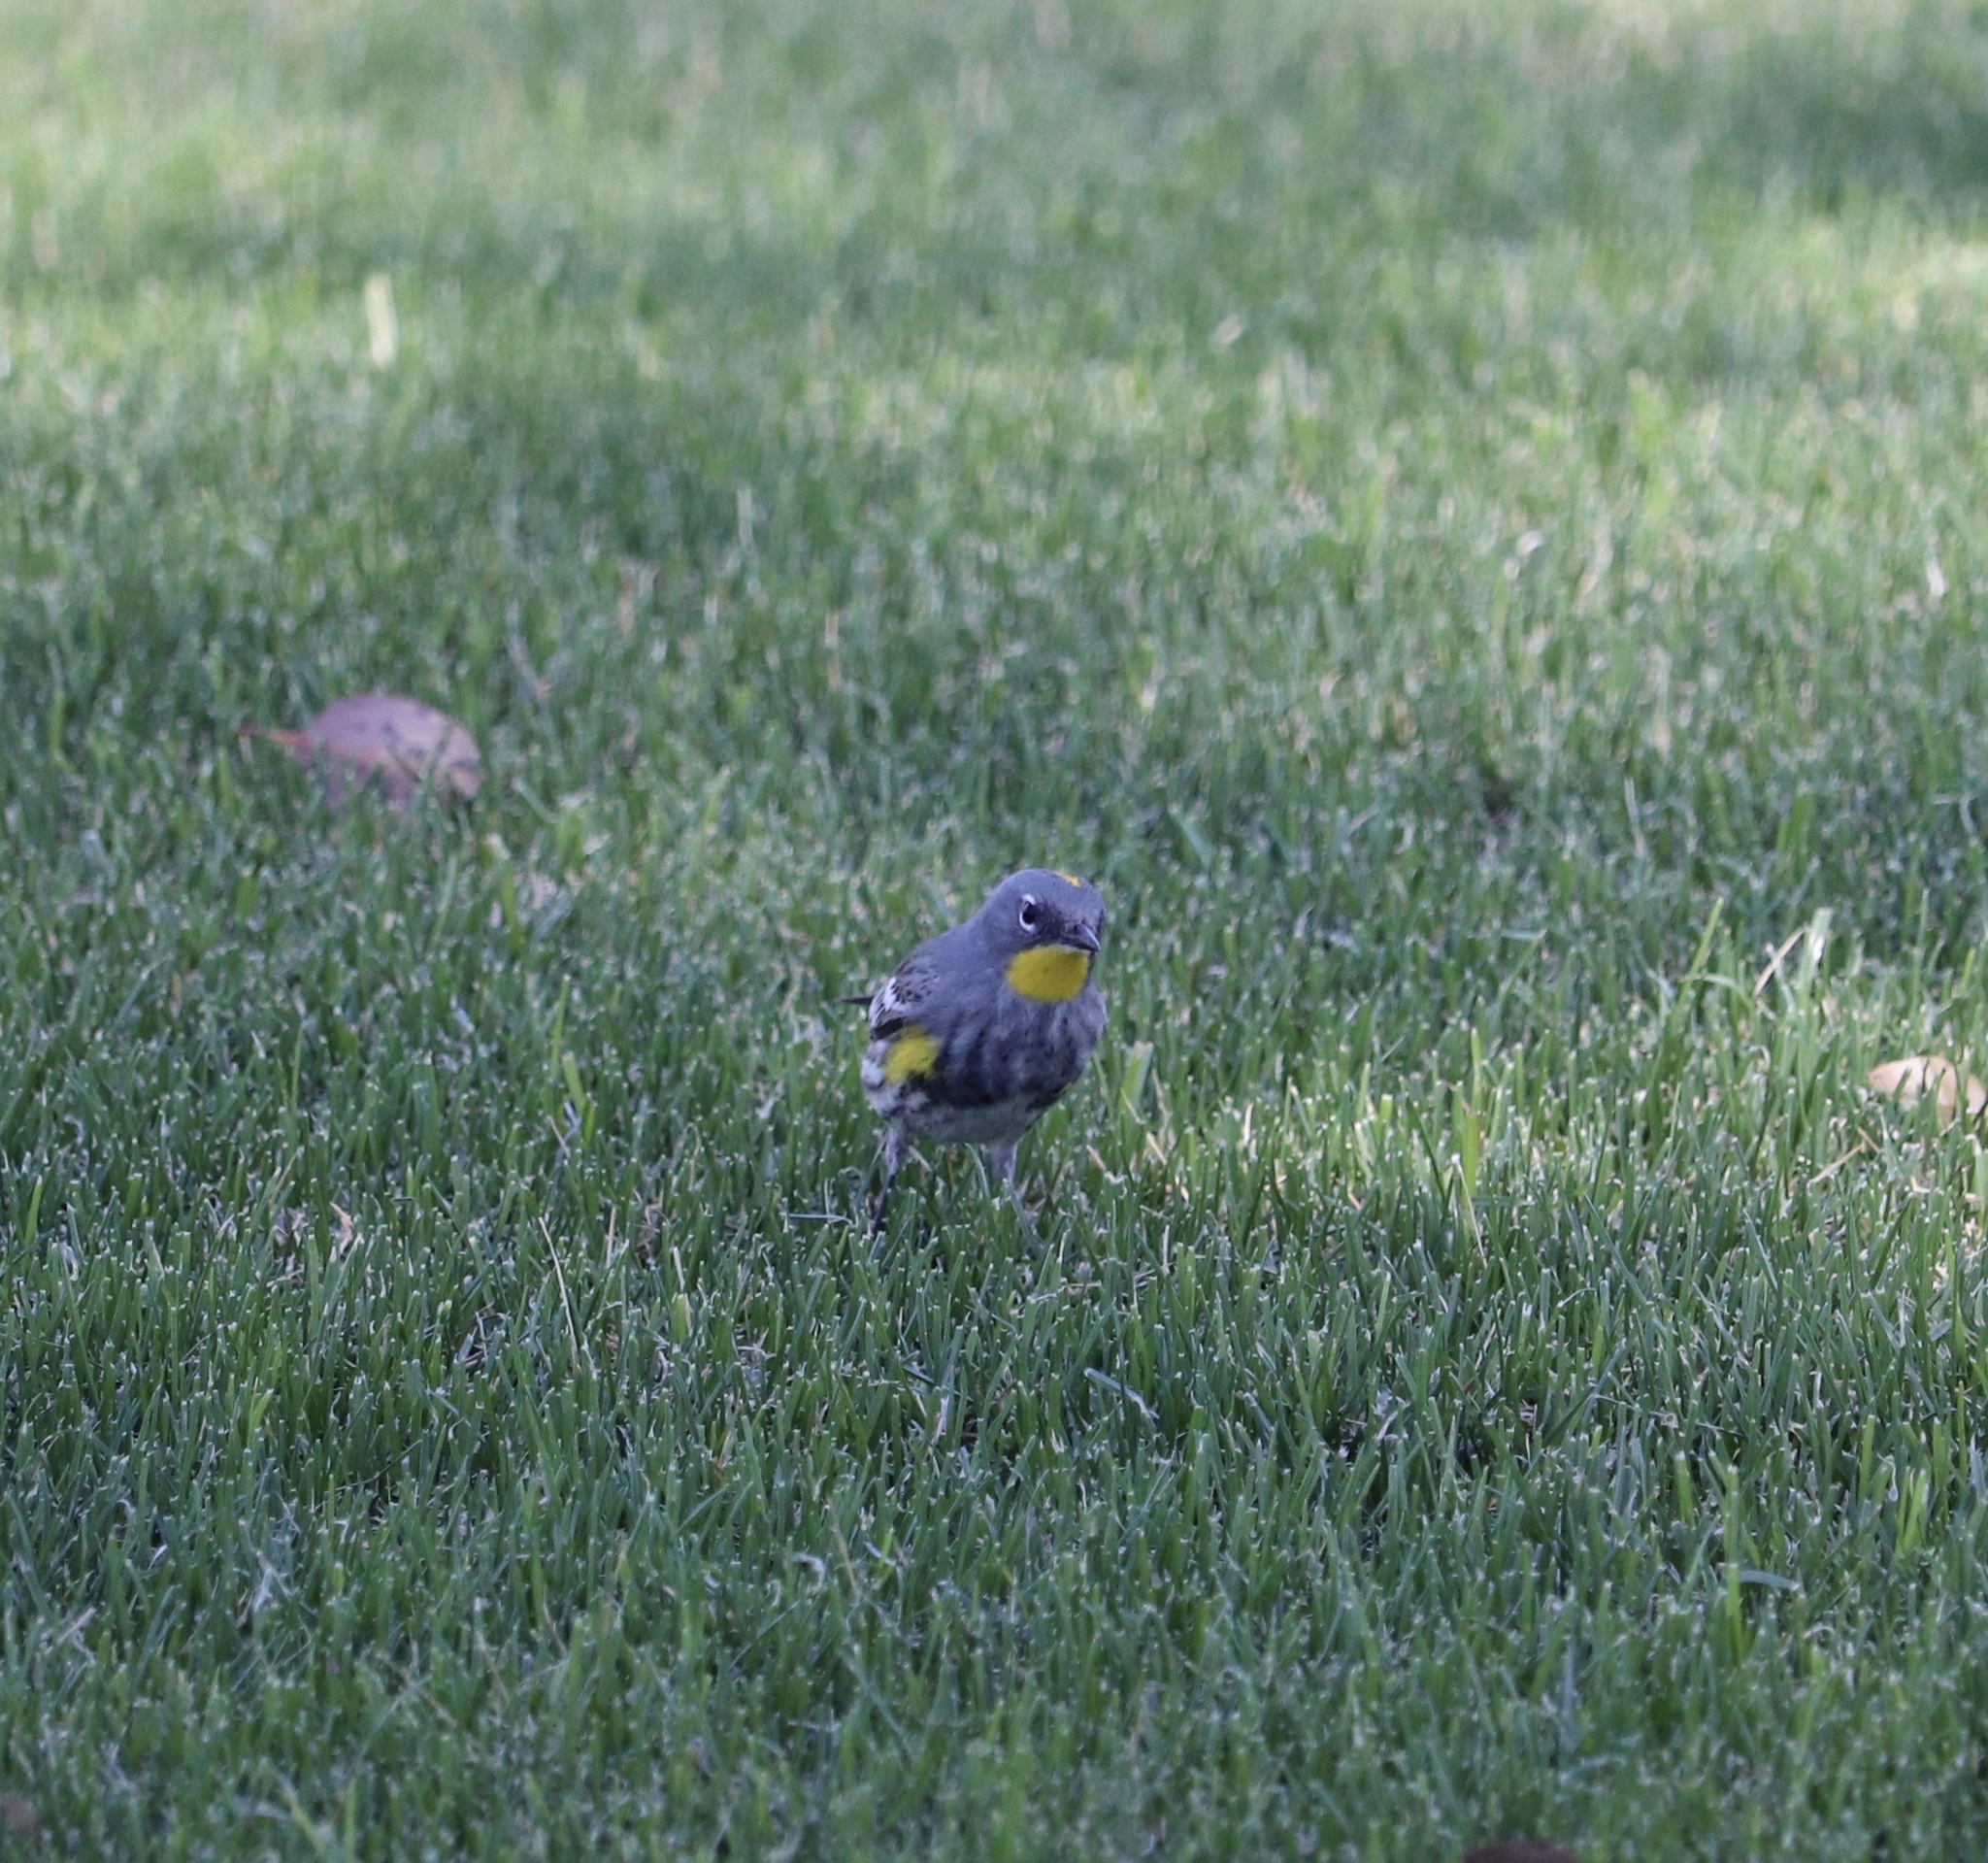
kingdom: Animalia
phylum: Chordata
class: Aves
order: Passeriformes
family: Parulidae
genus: Setophaga
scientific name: Setophaga auduboni
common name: Audubon's warbler
